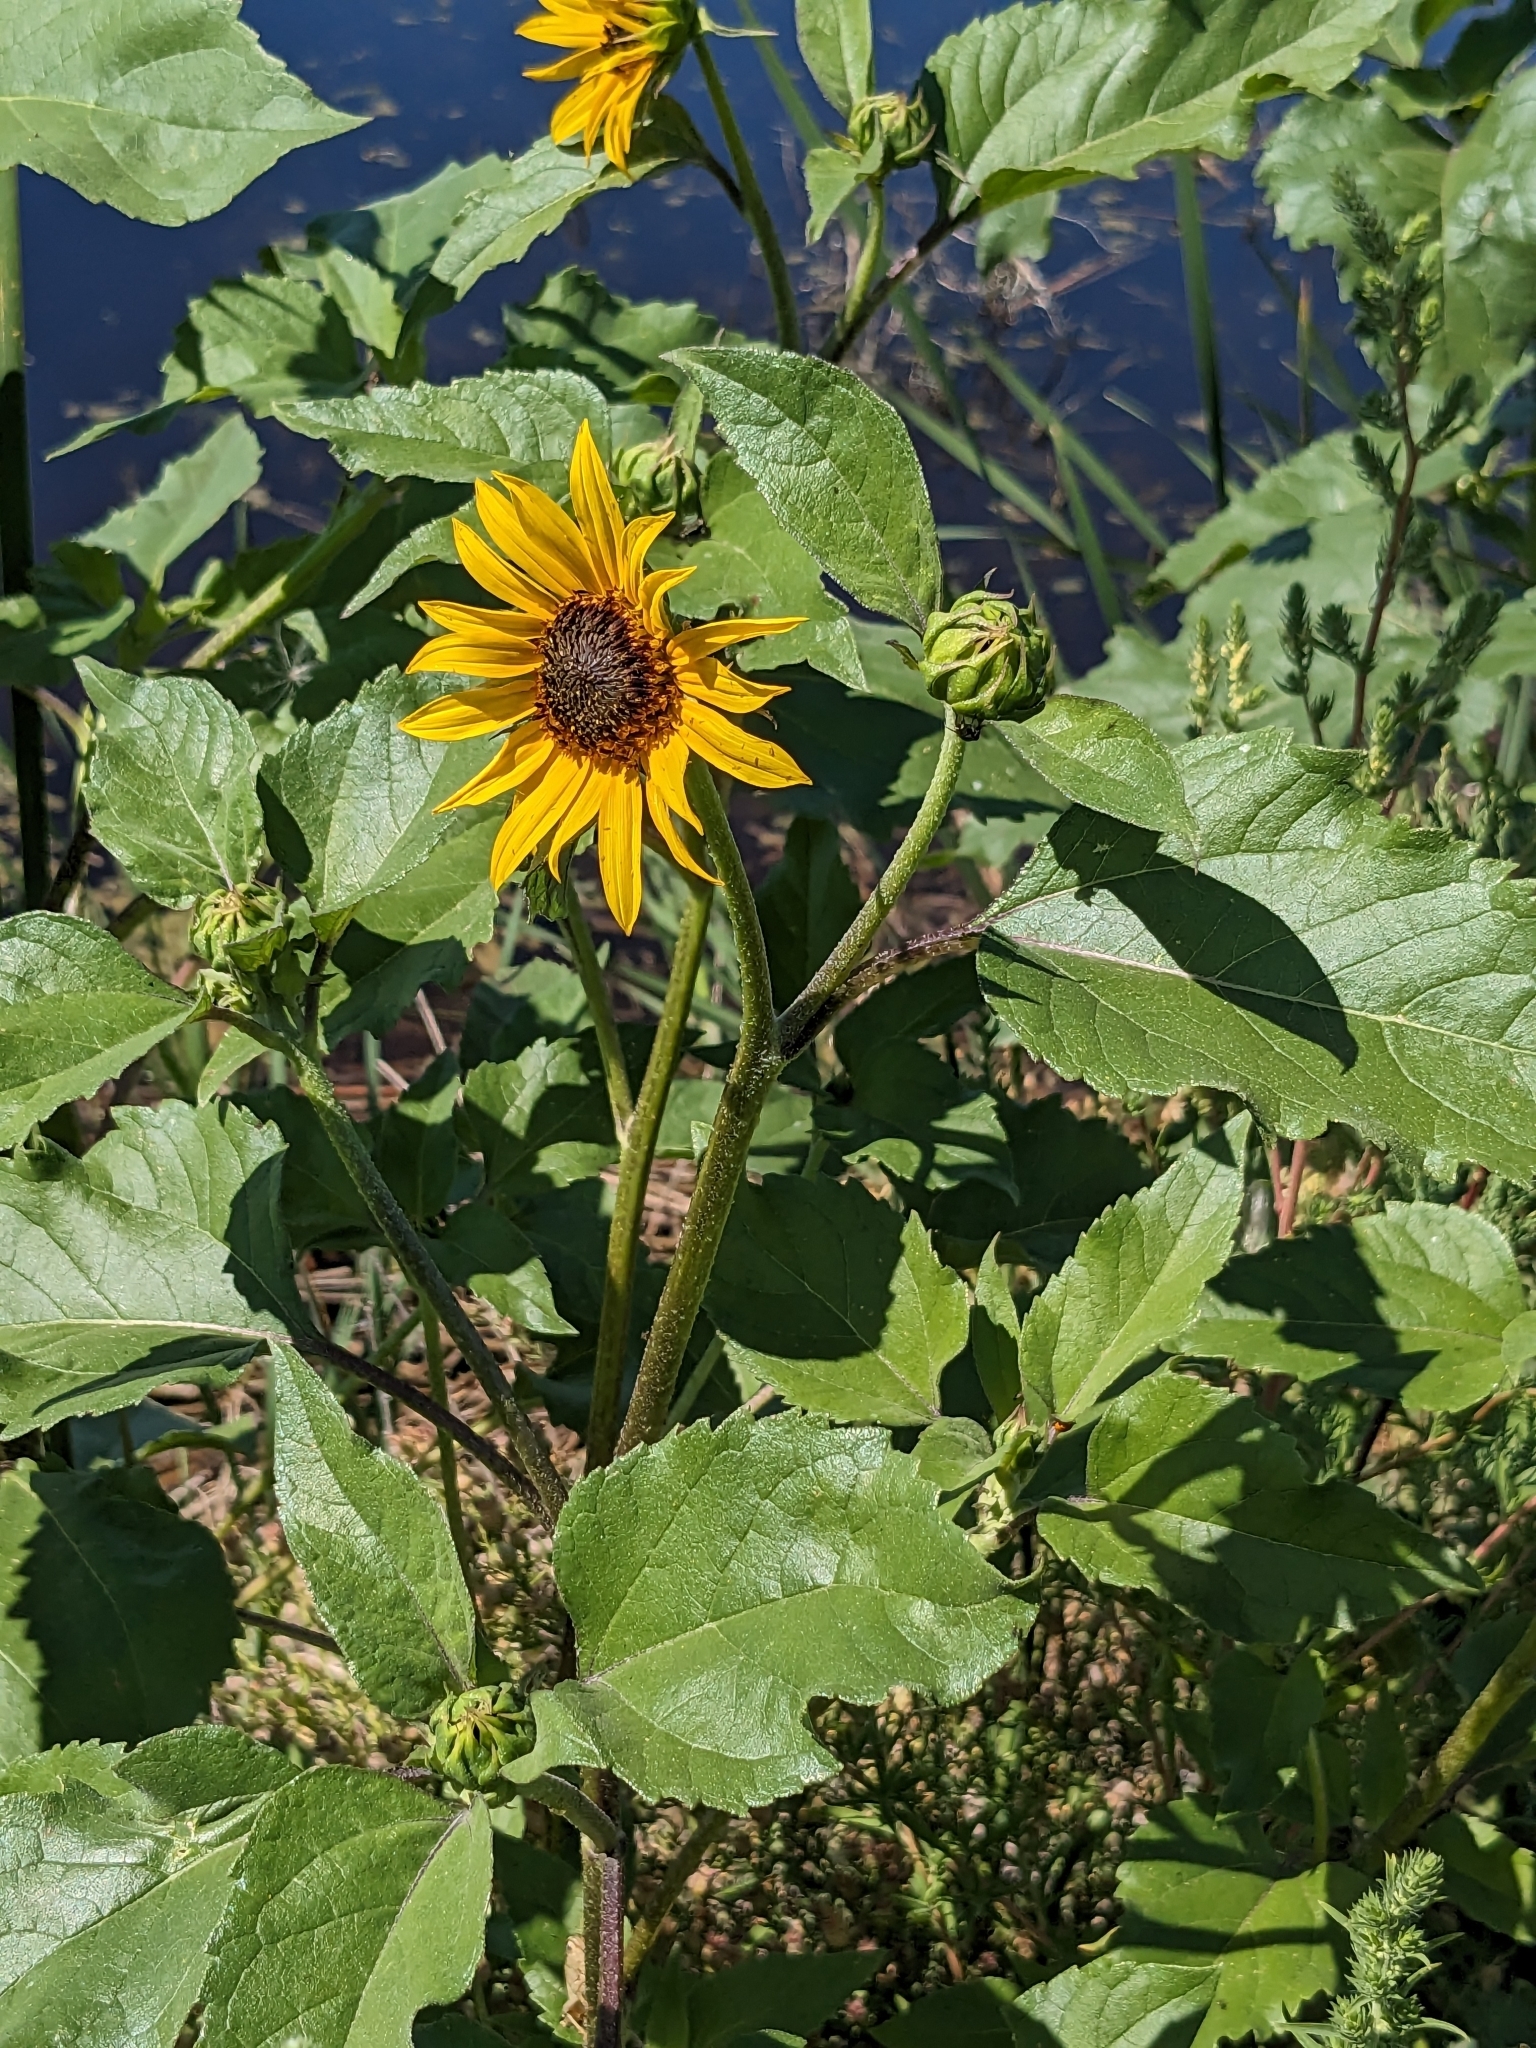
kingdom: Plantae
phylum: Tracheophyta
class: Magnoliopsida
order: Asterales
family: Asteraceae
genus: Helianthus
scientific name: Helianthus annuus
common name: Sunflower
